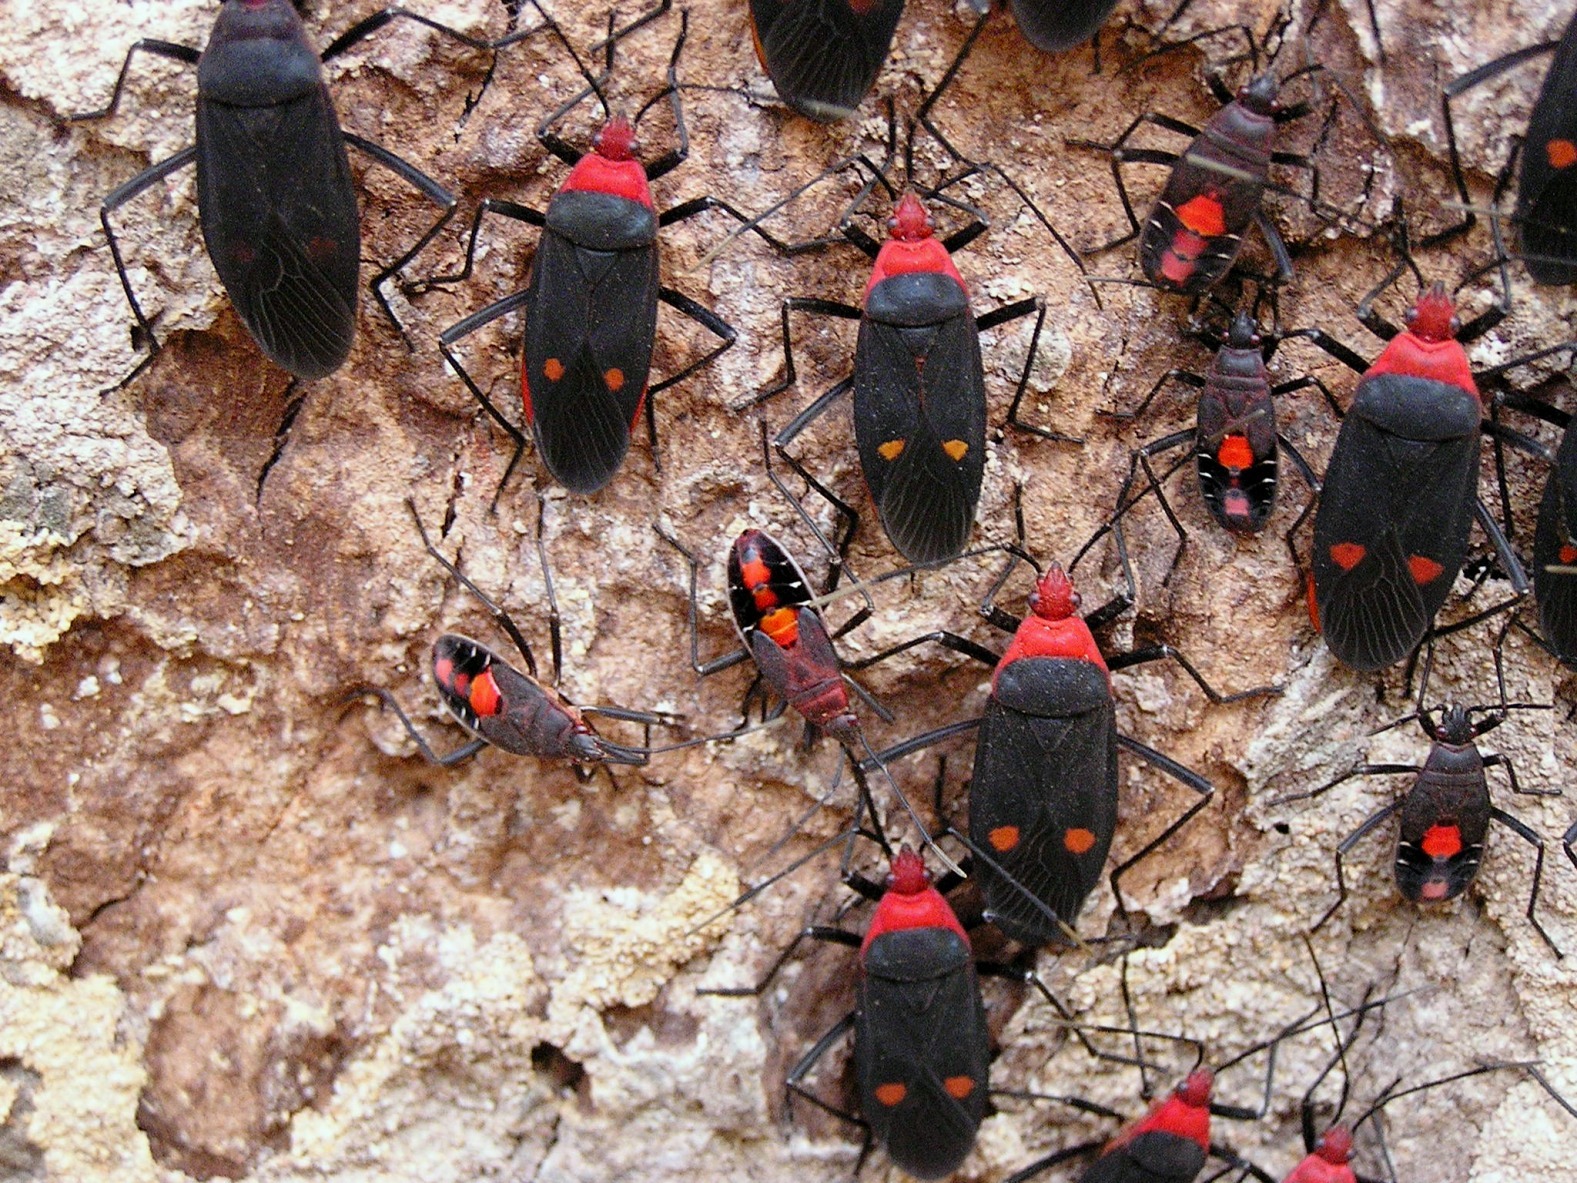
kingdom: Animalia
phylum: Arthropoda
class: Insecta
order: Hemiptera
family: Pyrrhocoridae
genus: Melamphaus
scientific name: Melamphaus faber
